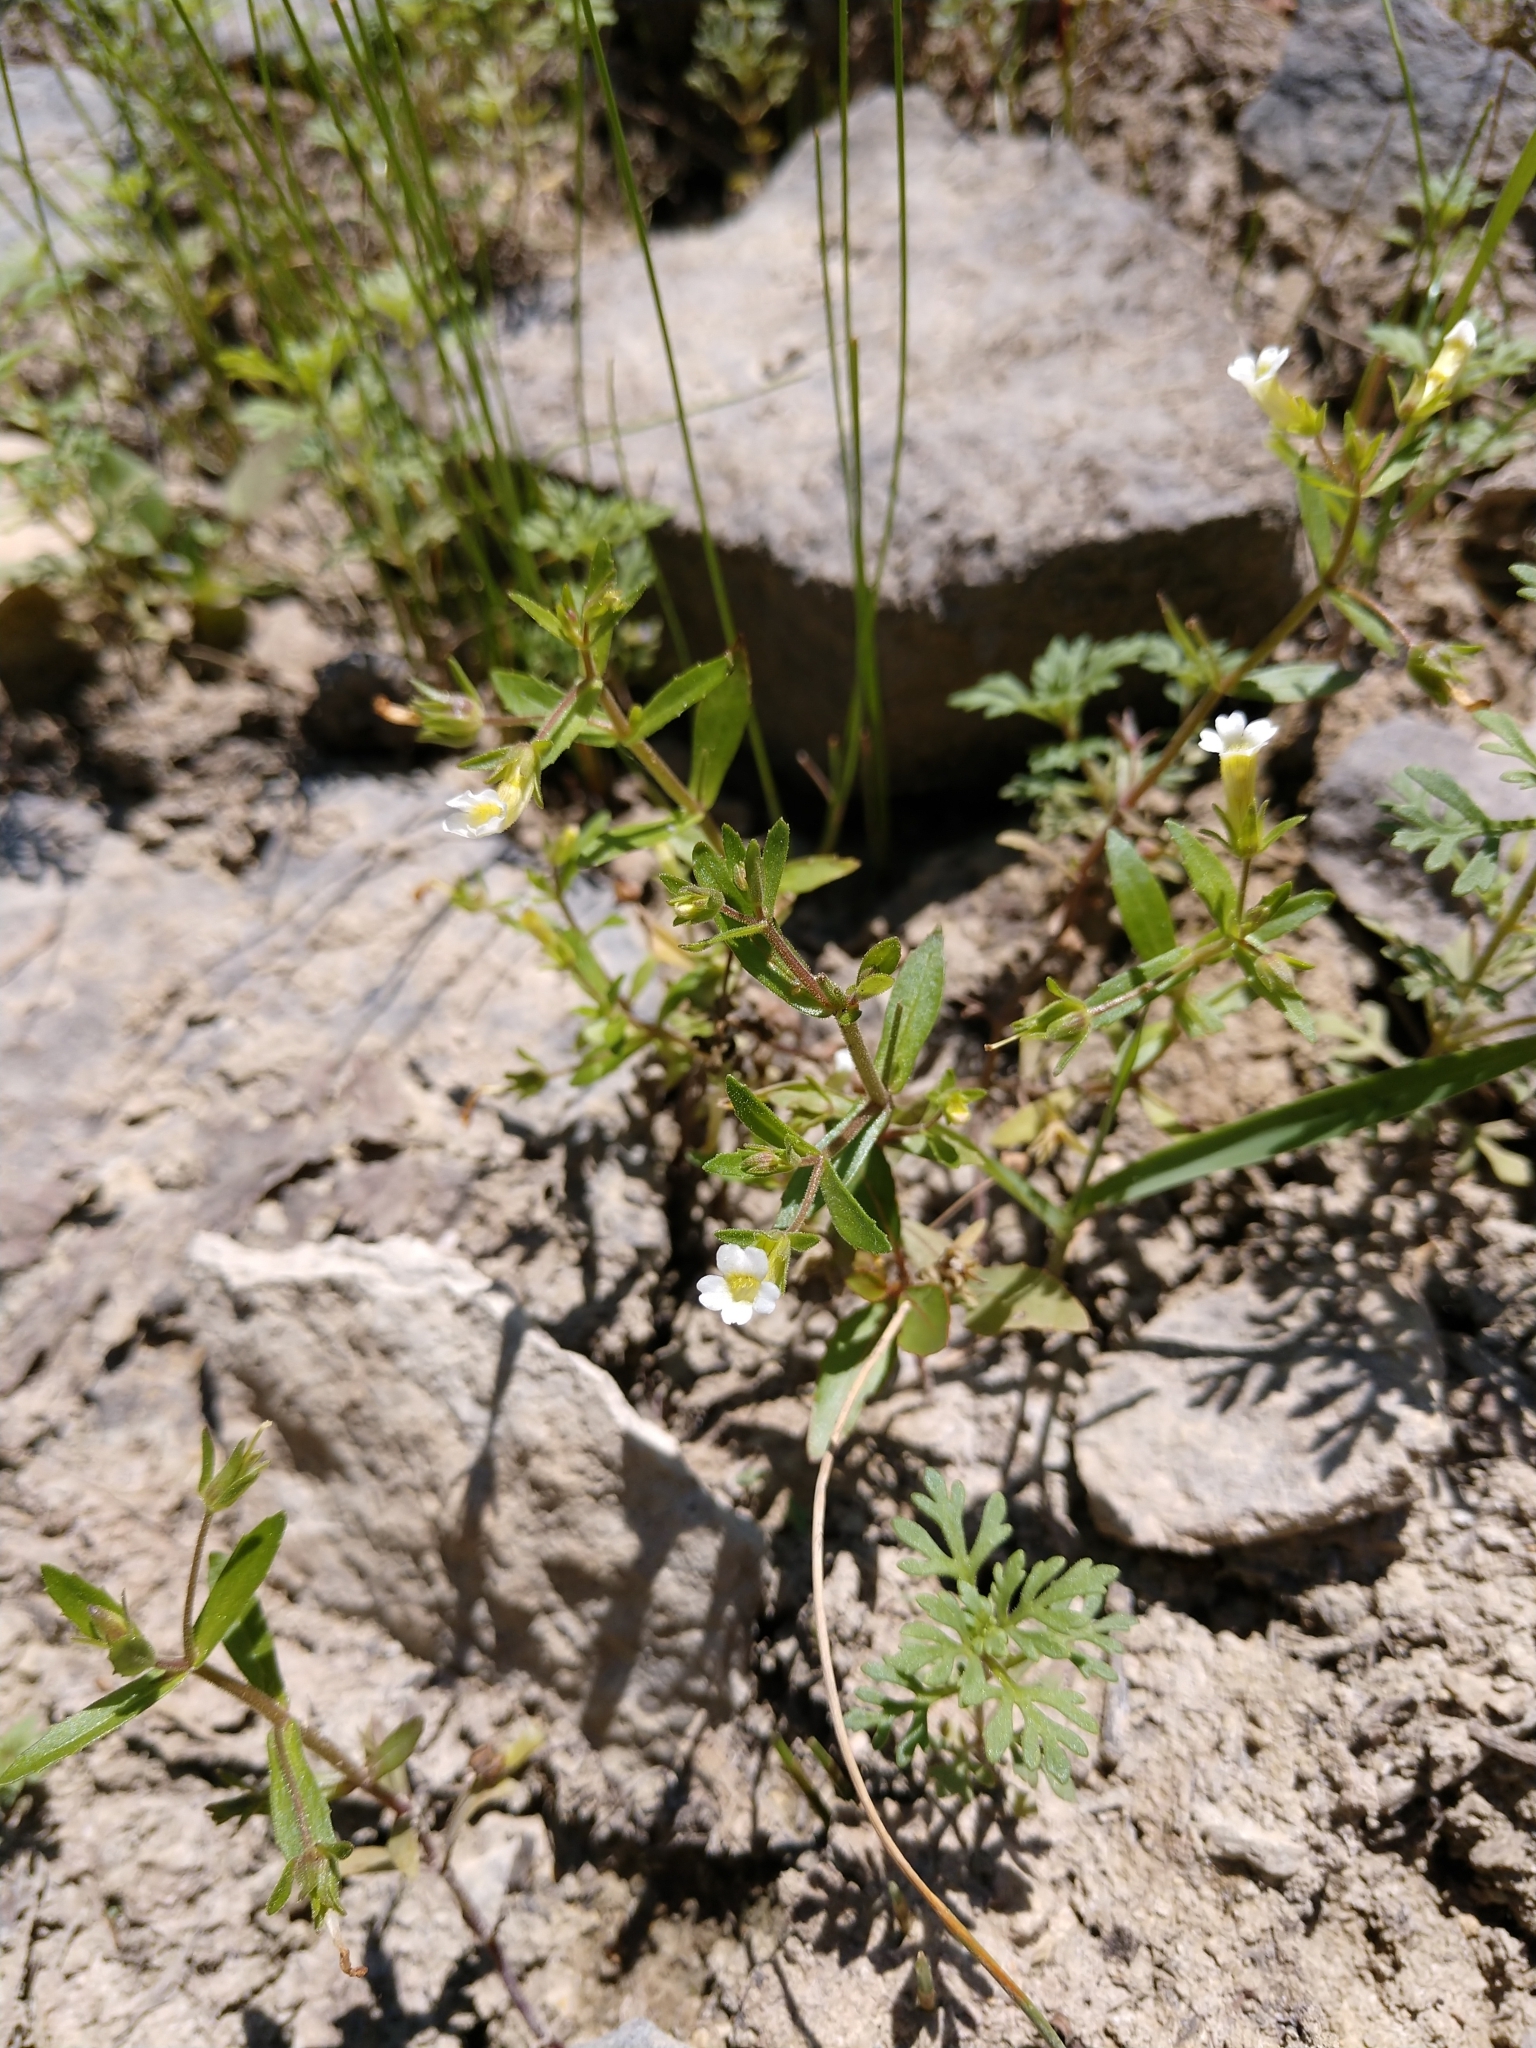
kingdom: Plantae
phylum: Tracheophyta
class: Magnoliopsida
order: Lamiales
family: Plantaginaceae
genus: Gratiola
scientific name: Gratiola neglecta
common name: American hedge-hyssop
